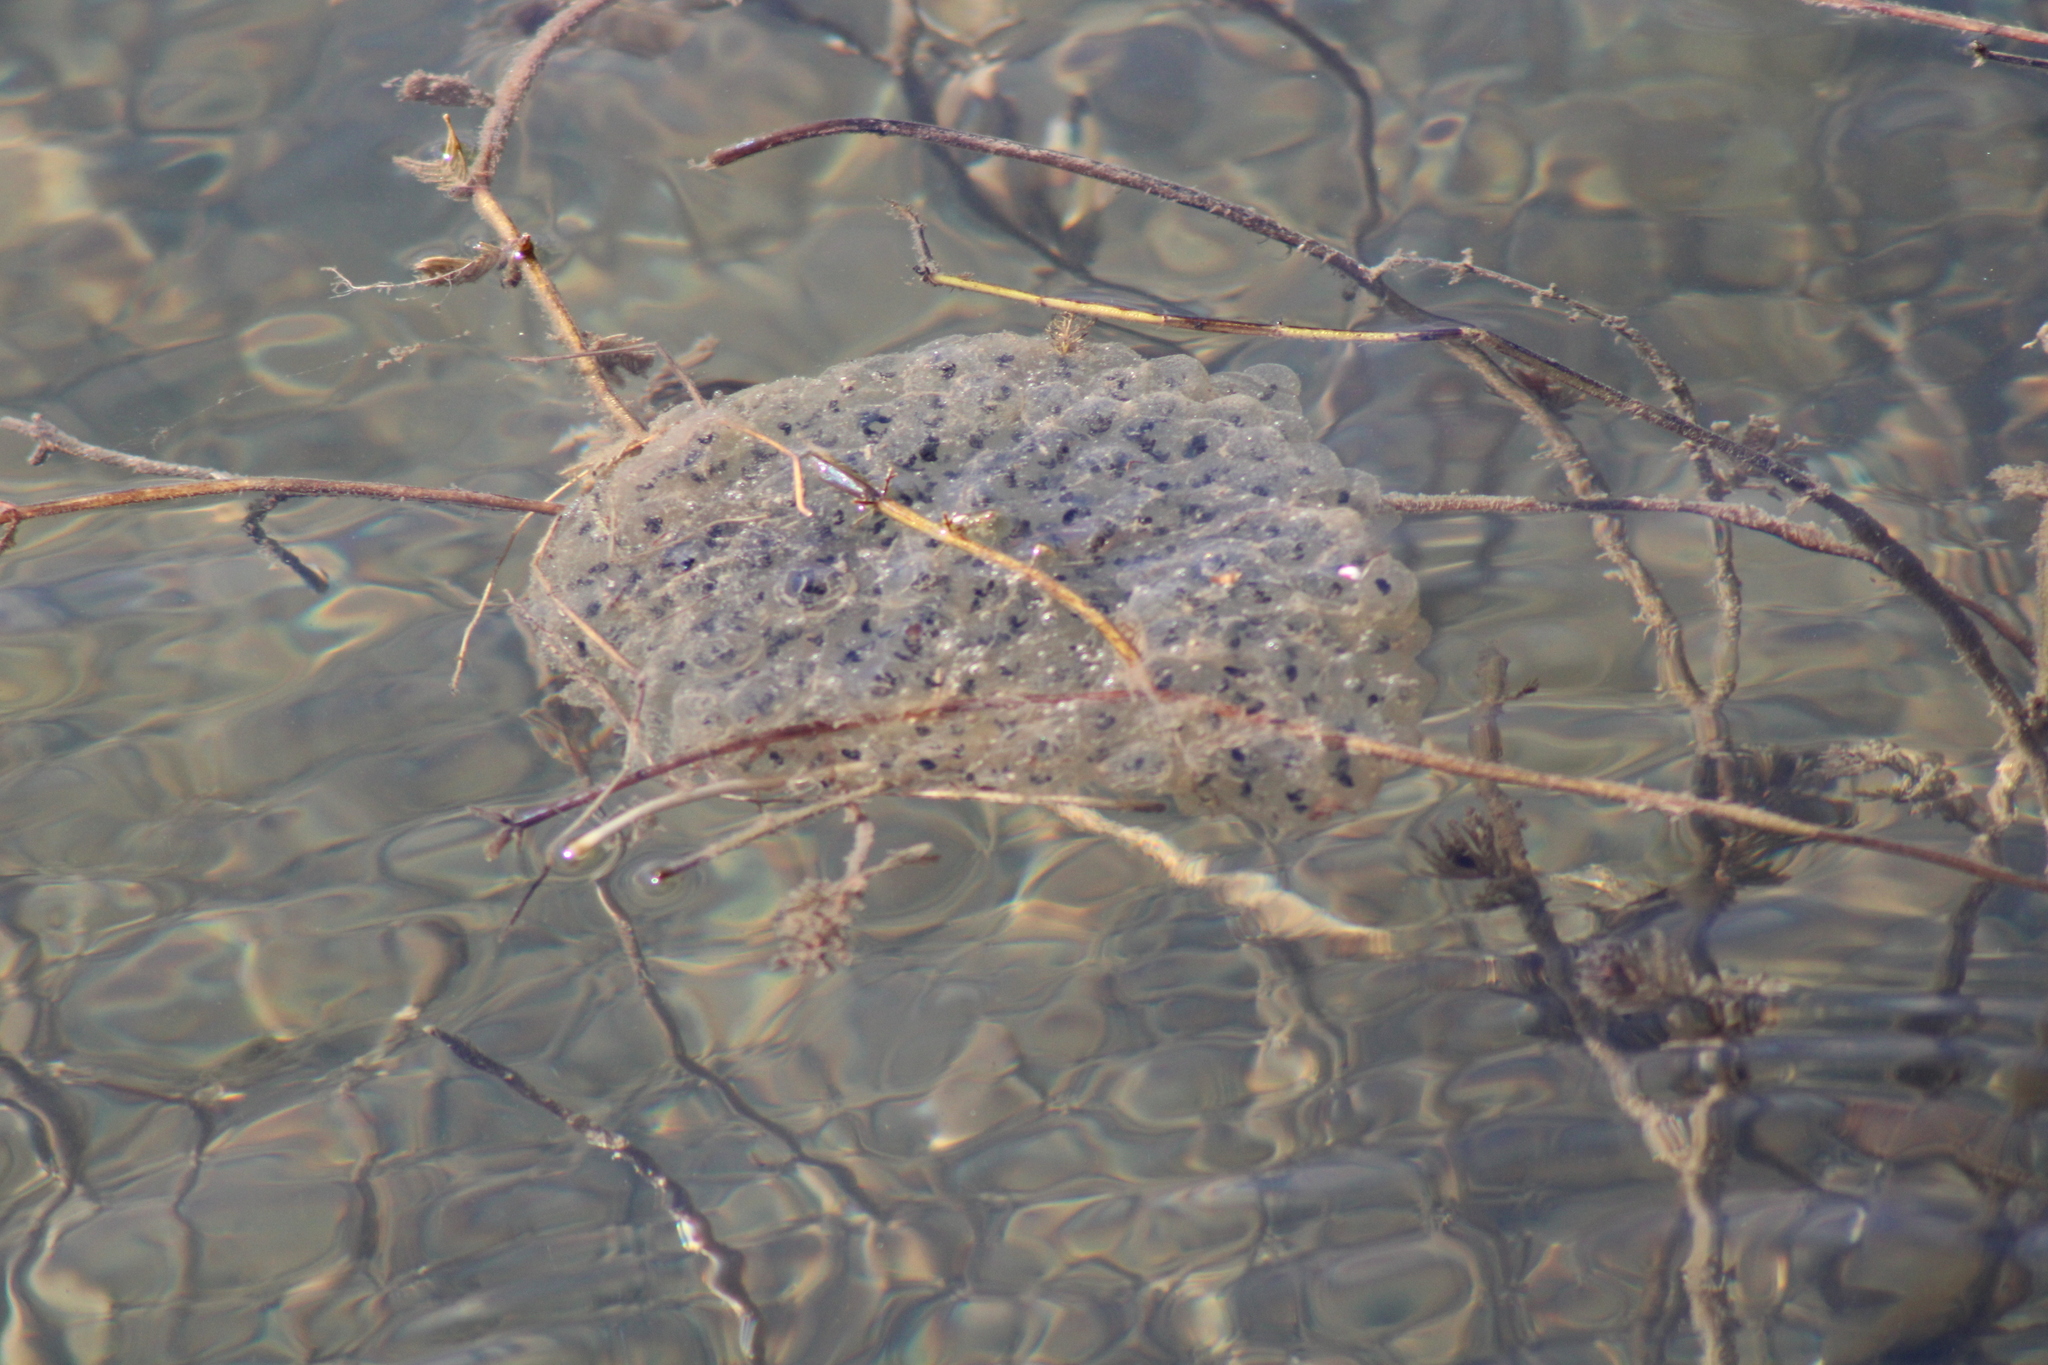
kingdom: Animalia
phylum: Chordata
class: Amphibia
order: Anura
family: Ranidae
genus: Rana
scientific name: Rana dalmatina
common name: Agile frog
